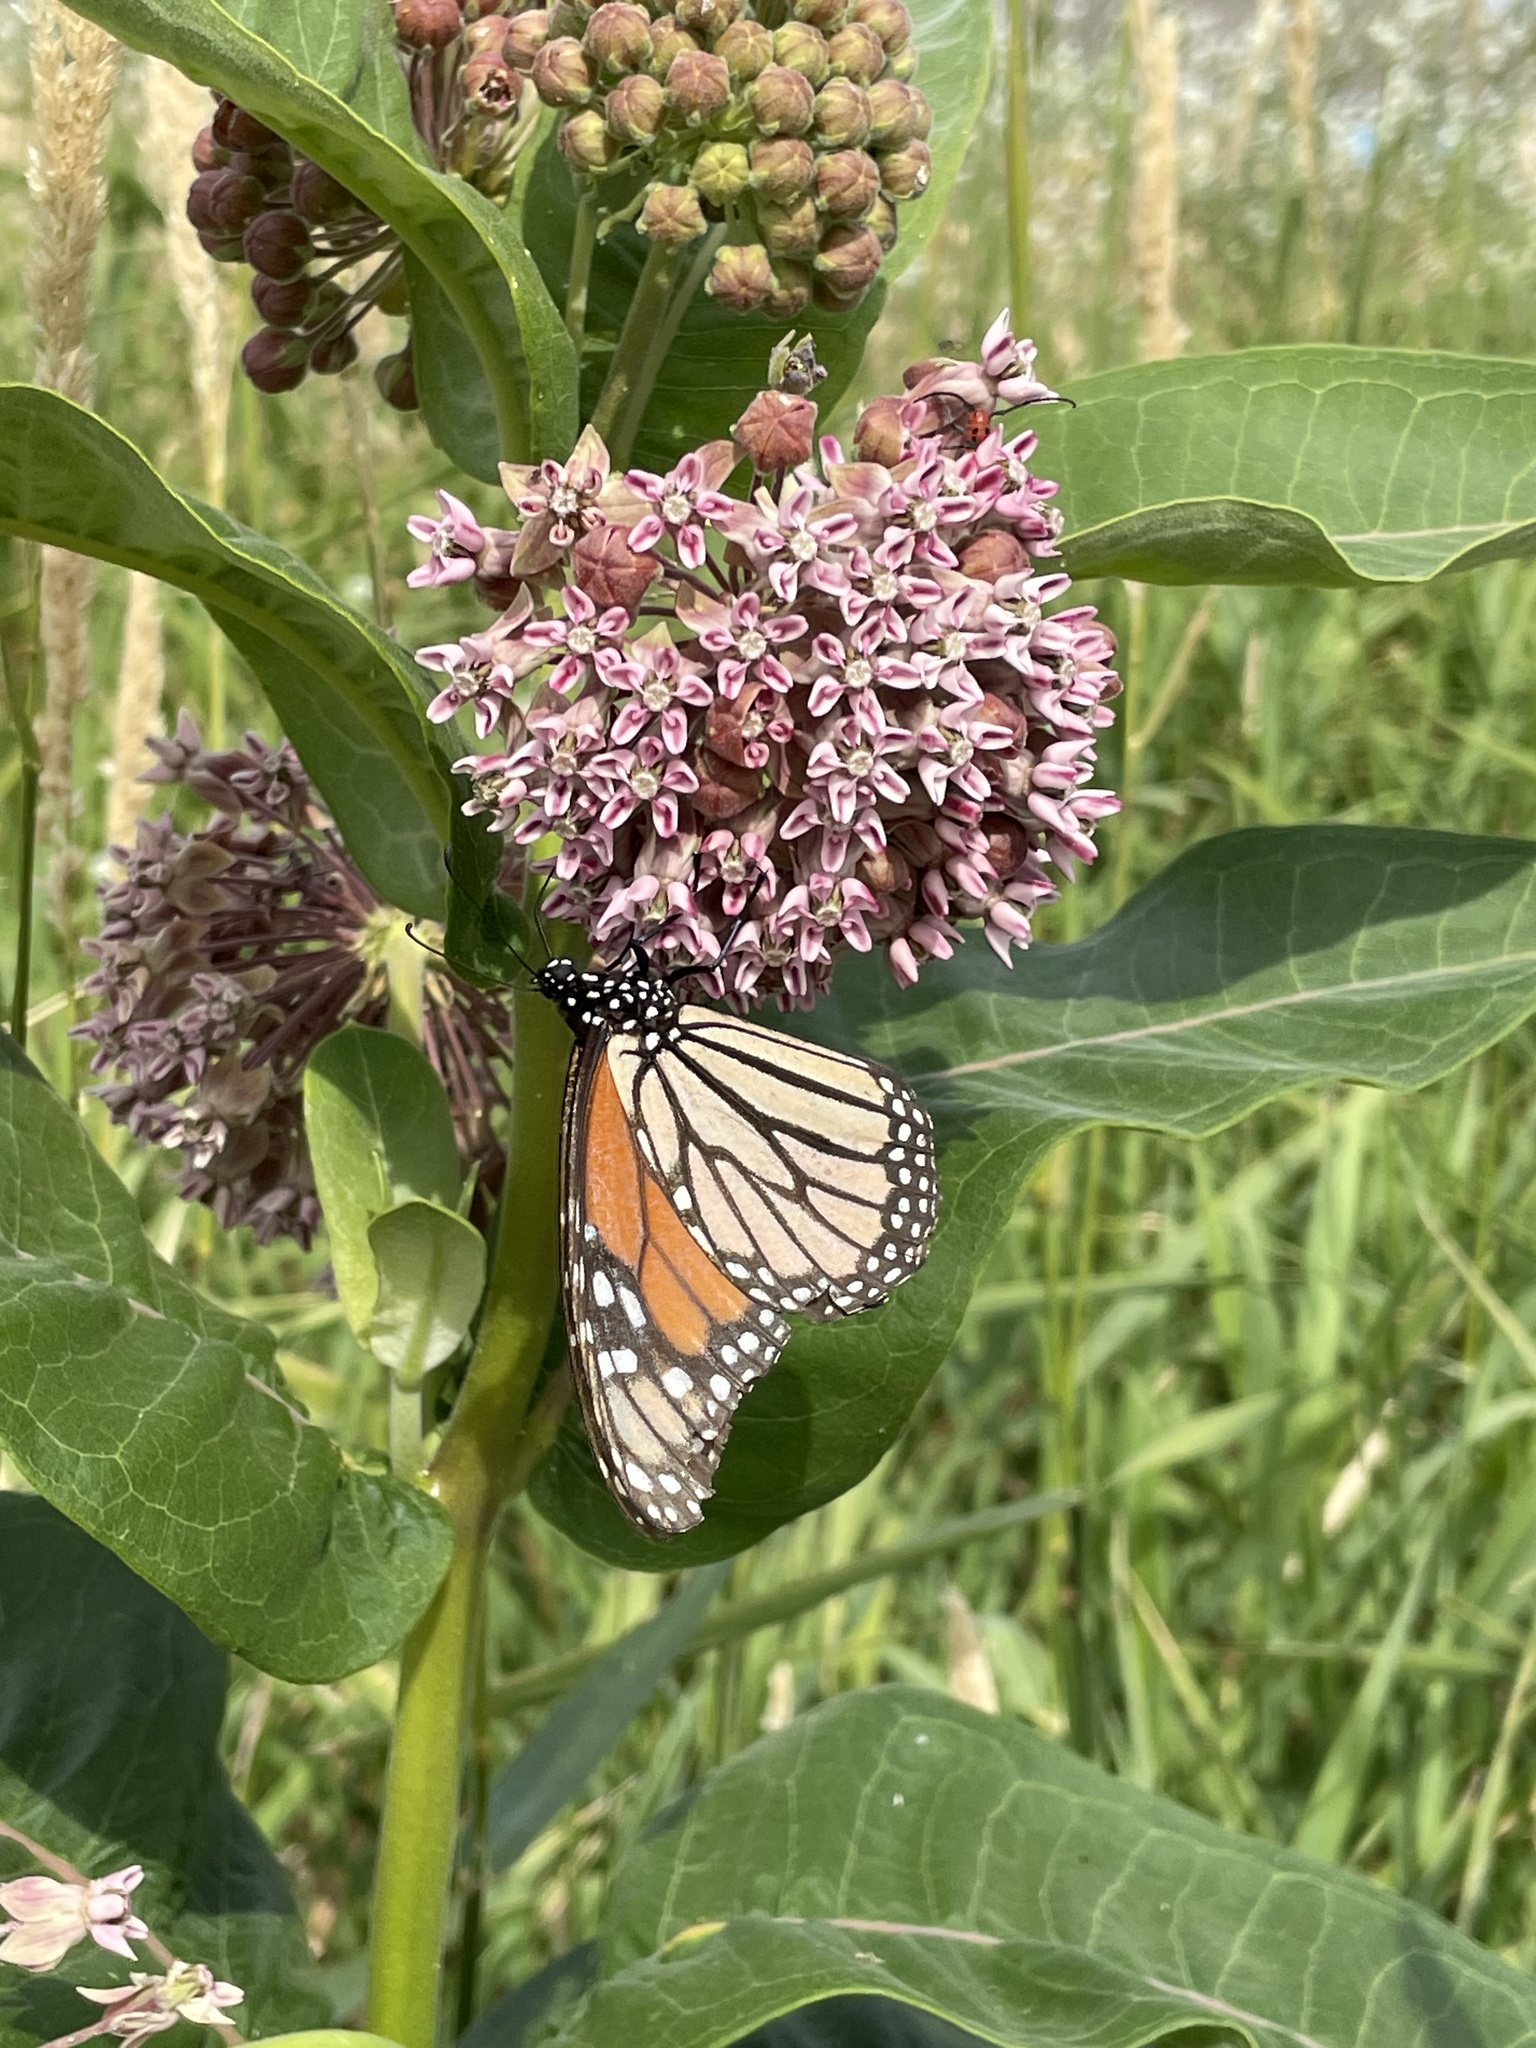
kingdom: Animalia
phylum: Arthropoda
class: Insecta
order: Lepidoptera
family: Nymphalidae
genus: Danaus
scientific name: Danaus plexippus
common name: Monarch
